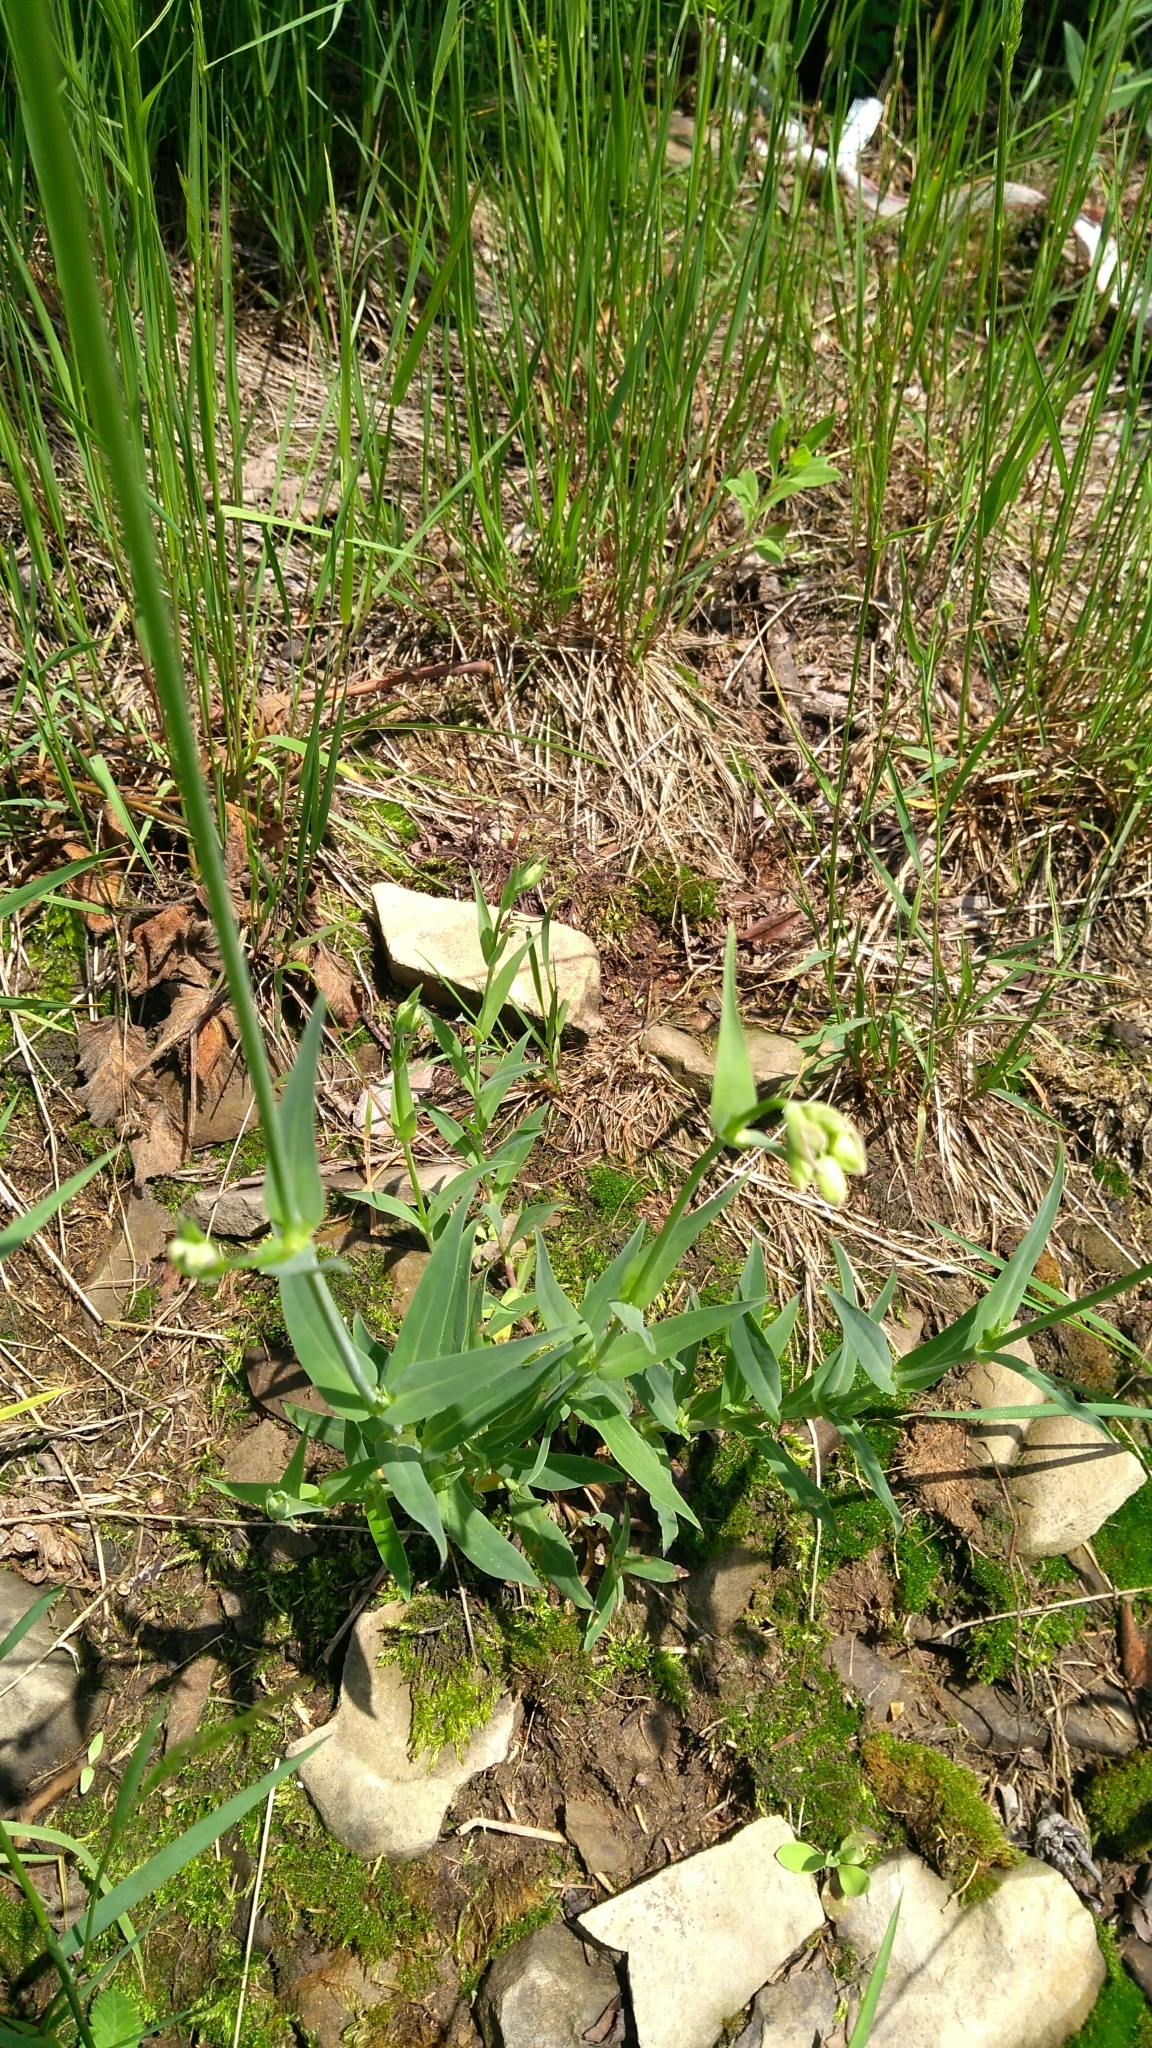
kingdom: Plantae
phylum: Tracheophyta
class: Magnoliopsida
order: Caryophyllales
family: Caryophyllaceae
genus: Silene
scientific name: Silene vulgaris
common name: Bladder campion
